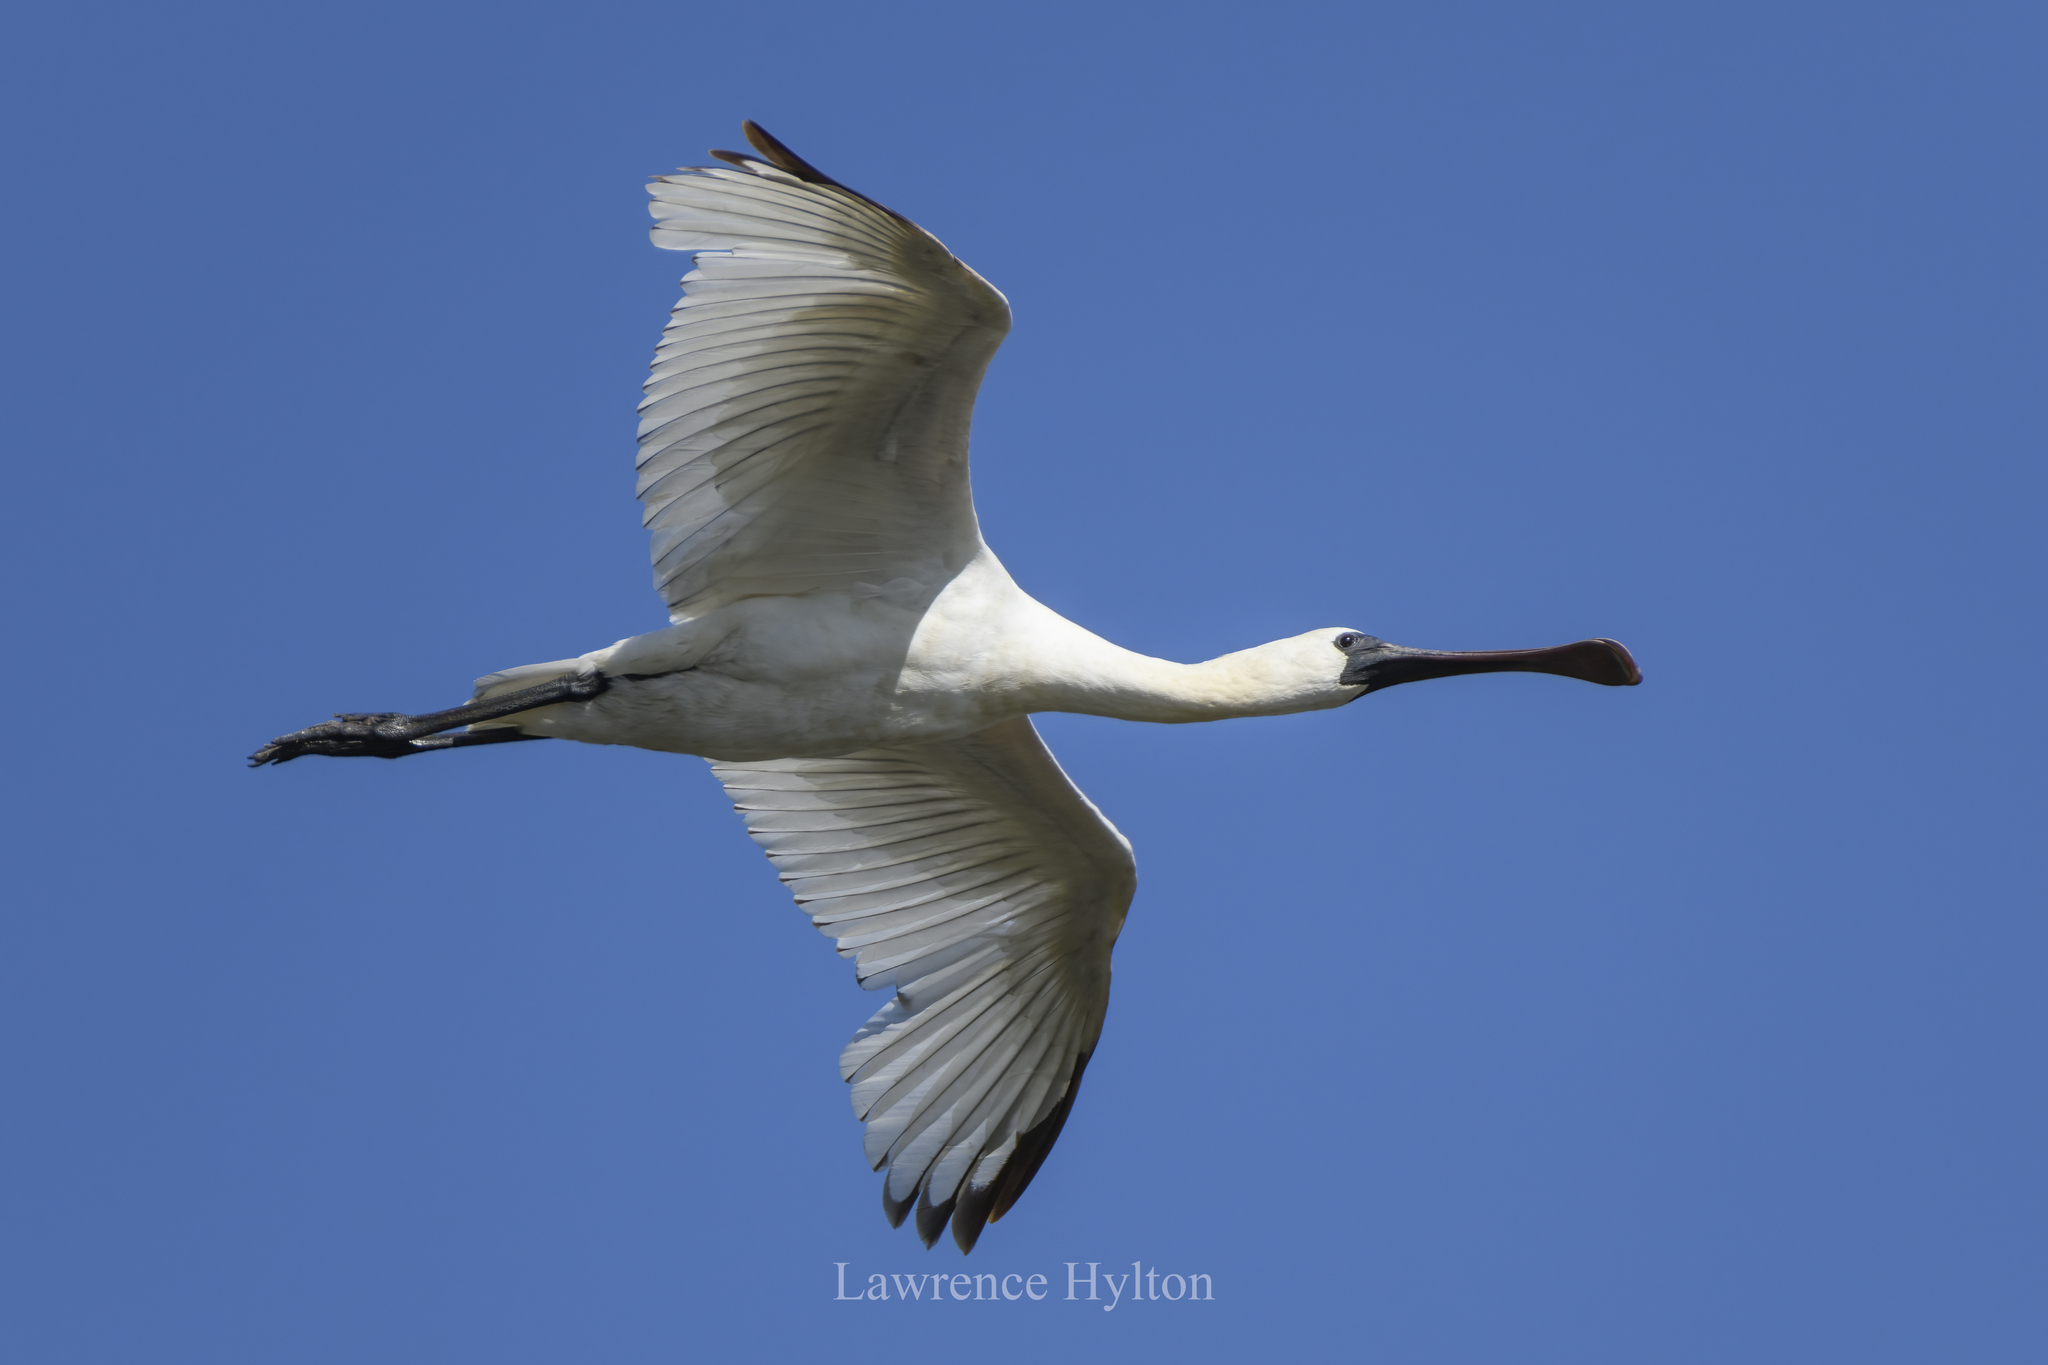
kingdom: Animalia
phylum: Chordata
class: Aves
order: Pelecaniformes
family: Threskiornithidae
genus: Platalea
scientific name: Platalea minor
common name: Black-faced spoonbill
